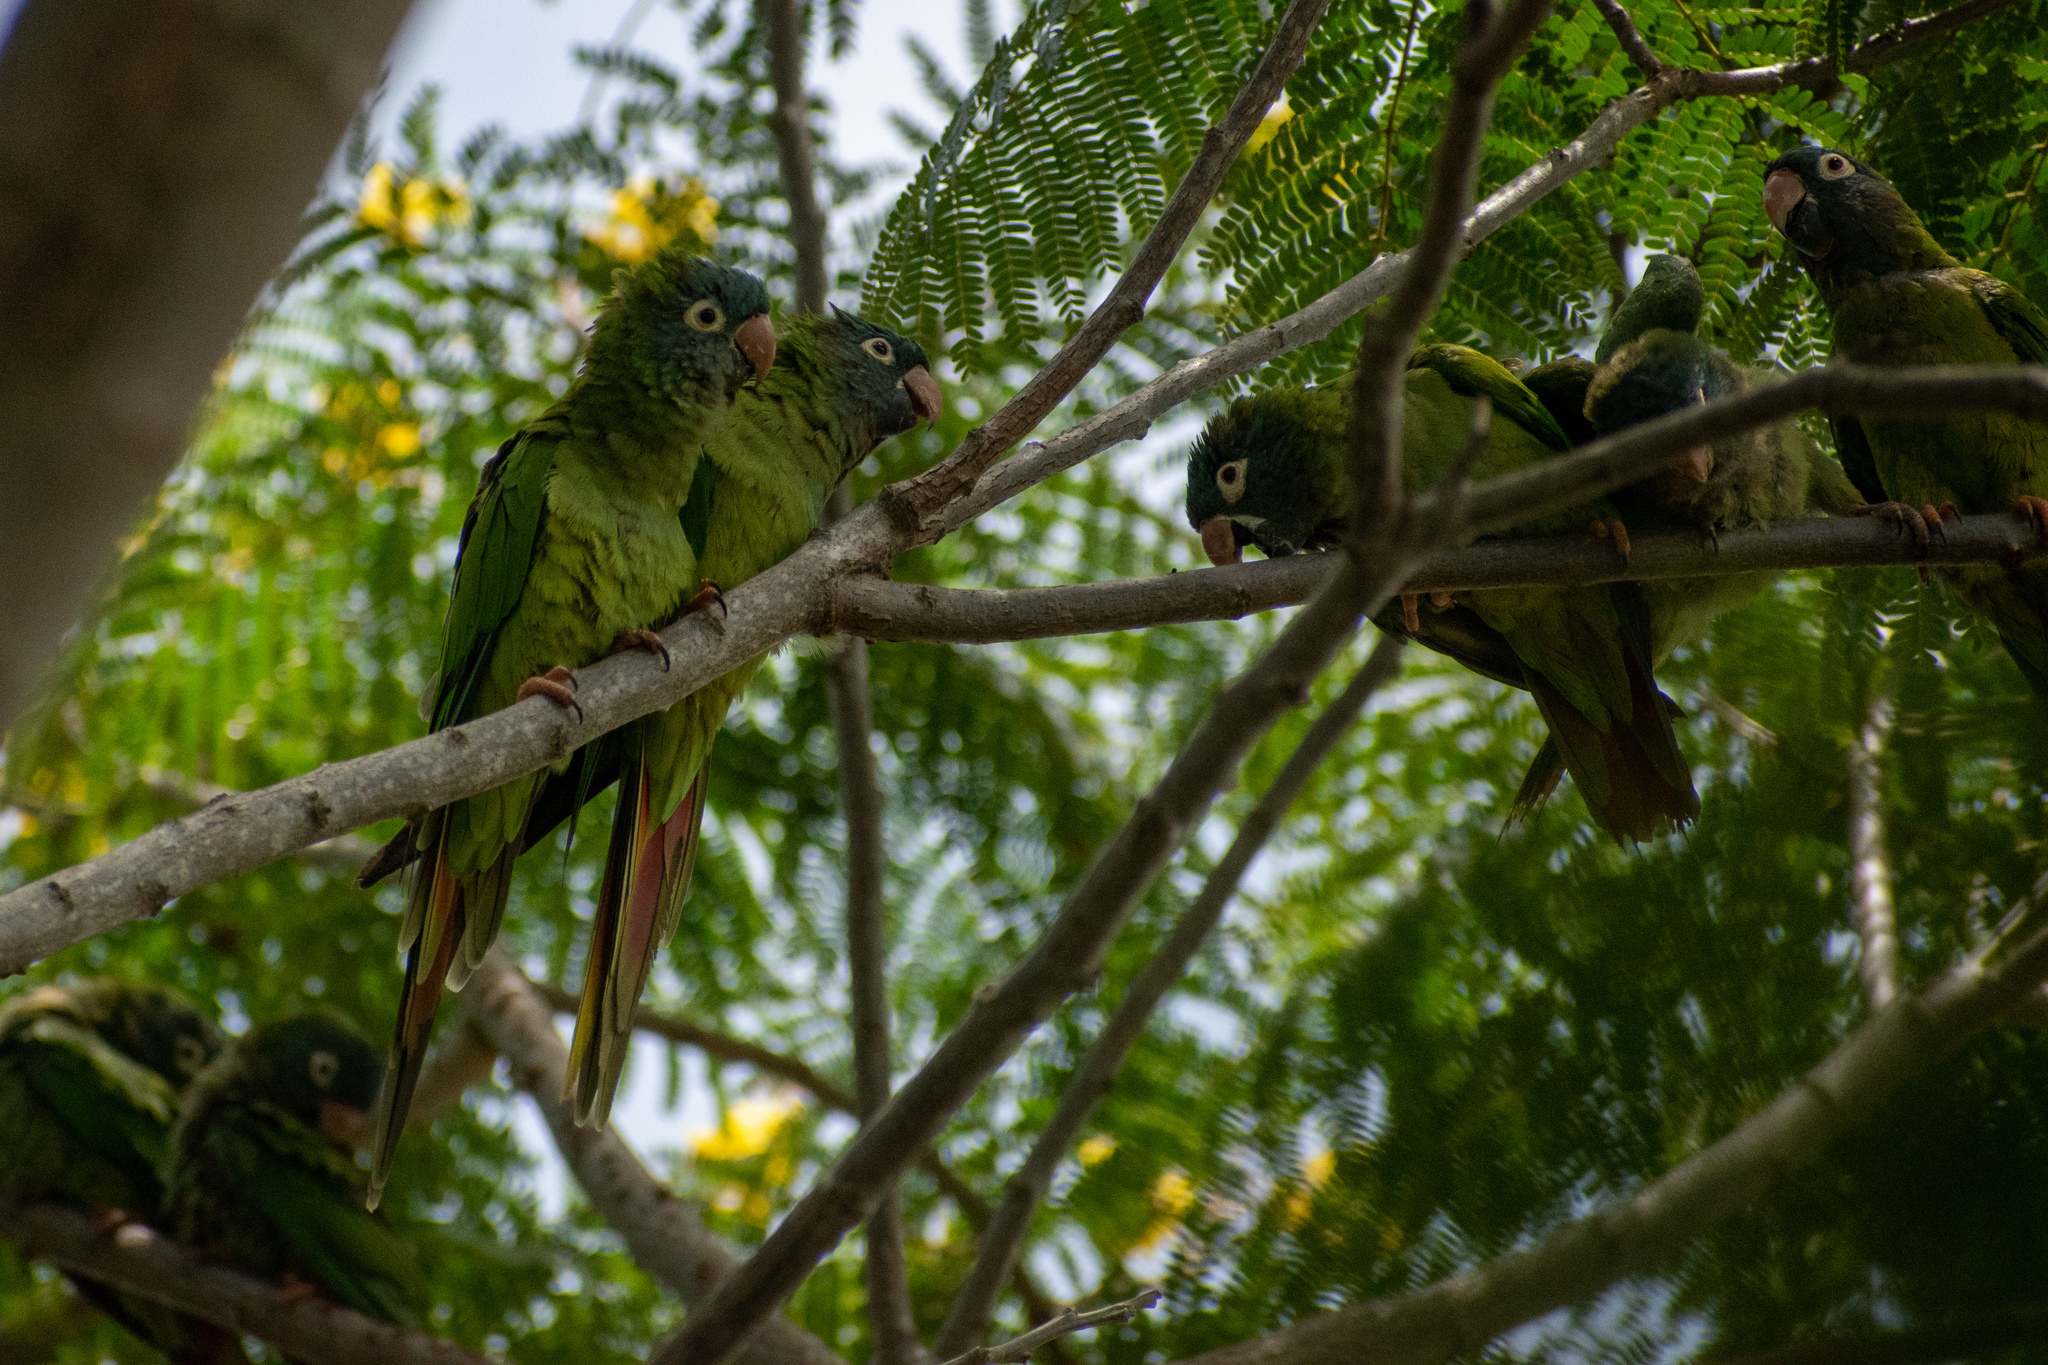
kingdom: Animalia
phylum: Chordata
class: Aves
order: Psittaciformes
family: Psittacidae
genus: Aratinga
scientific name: Aratinga acuticaudata
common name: Blue-crowned parakeet
